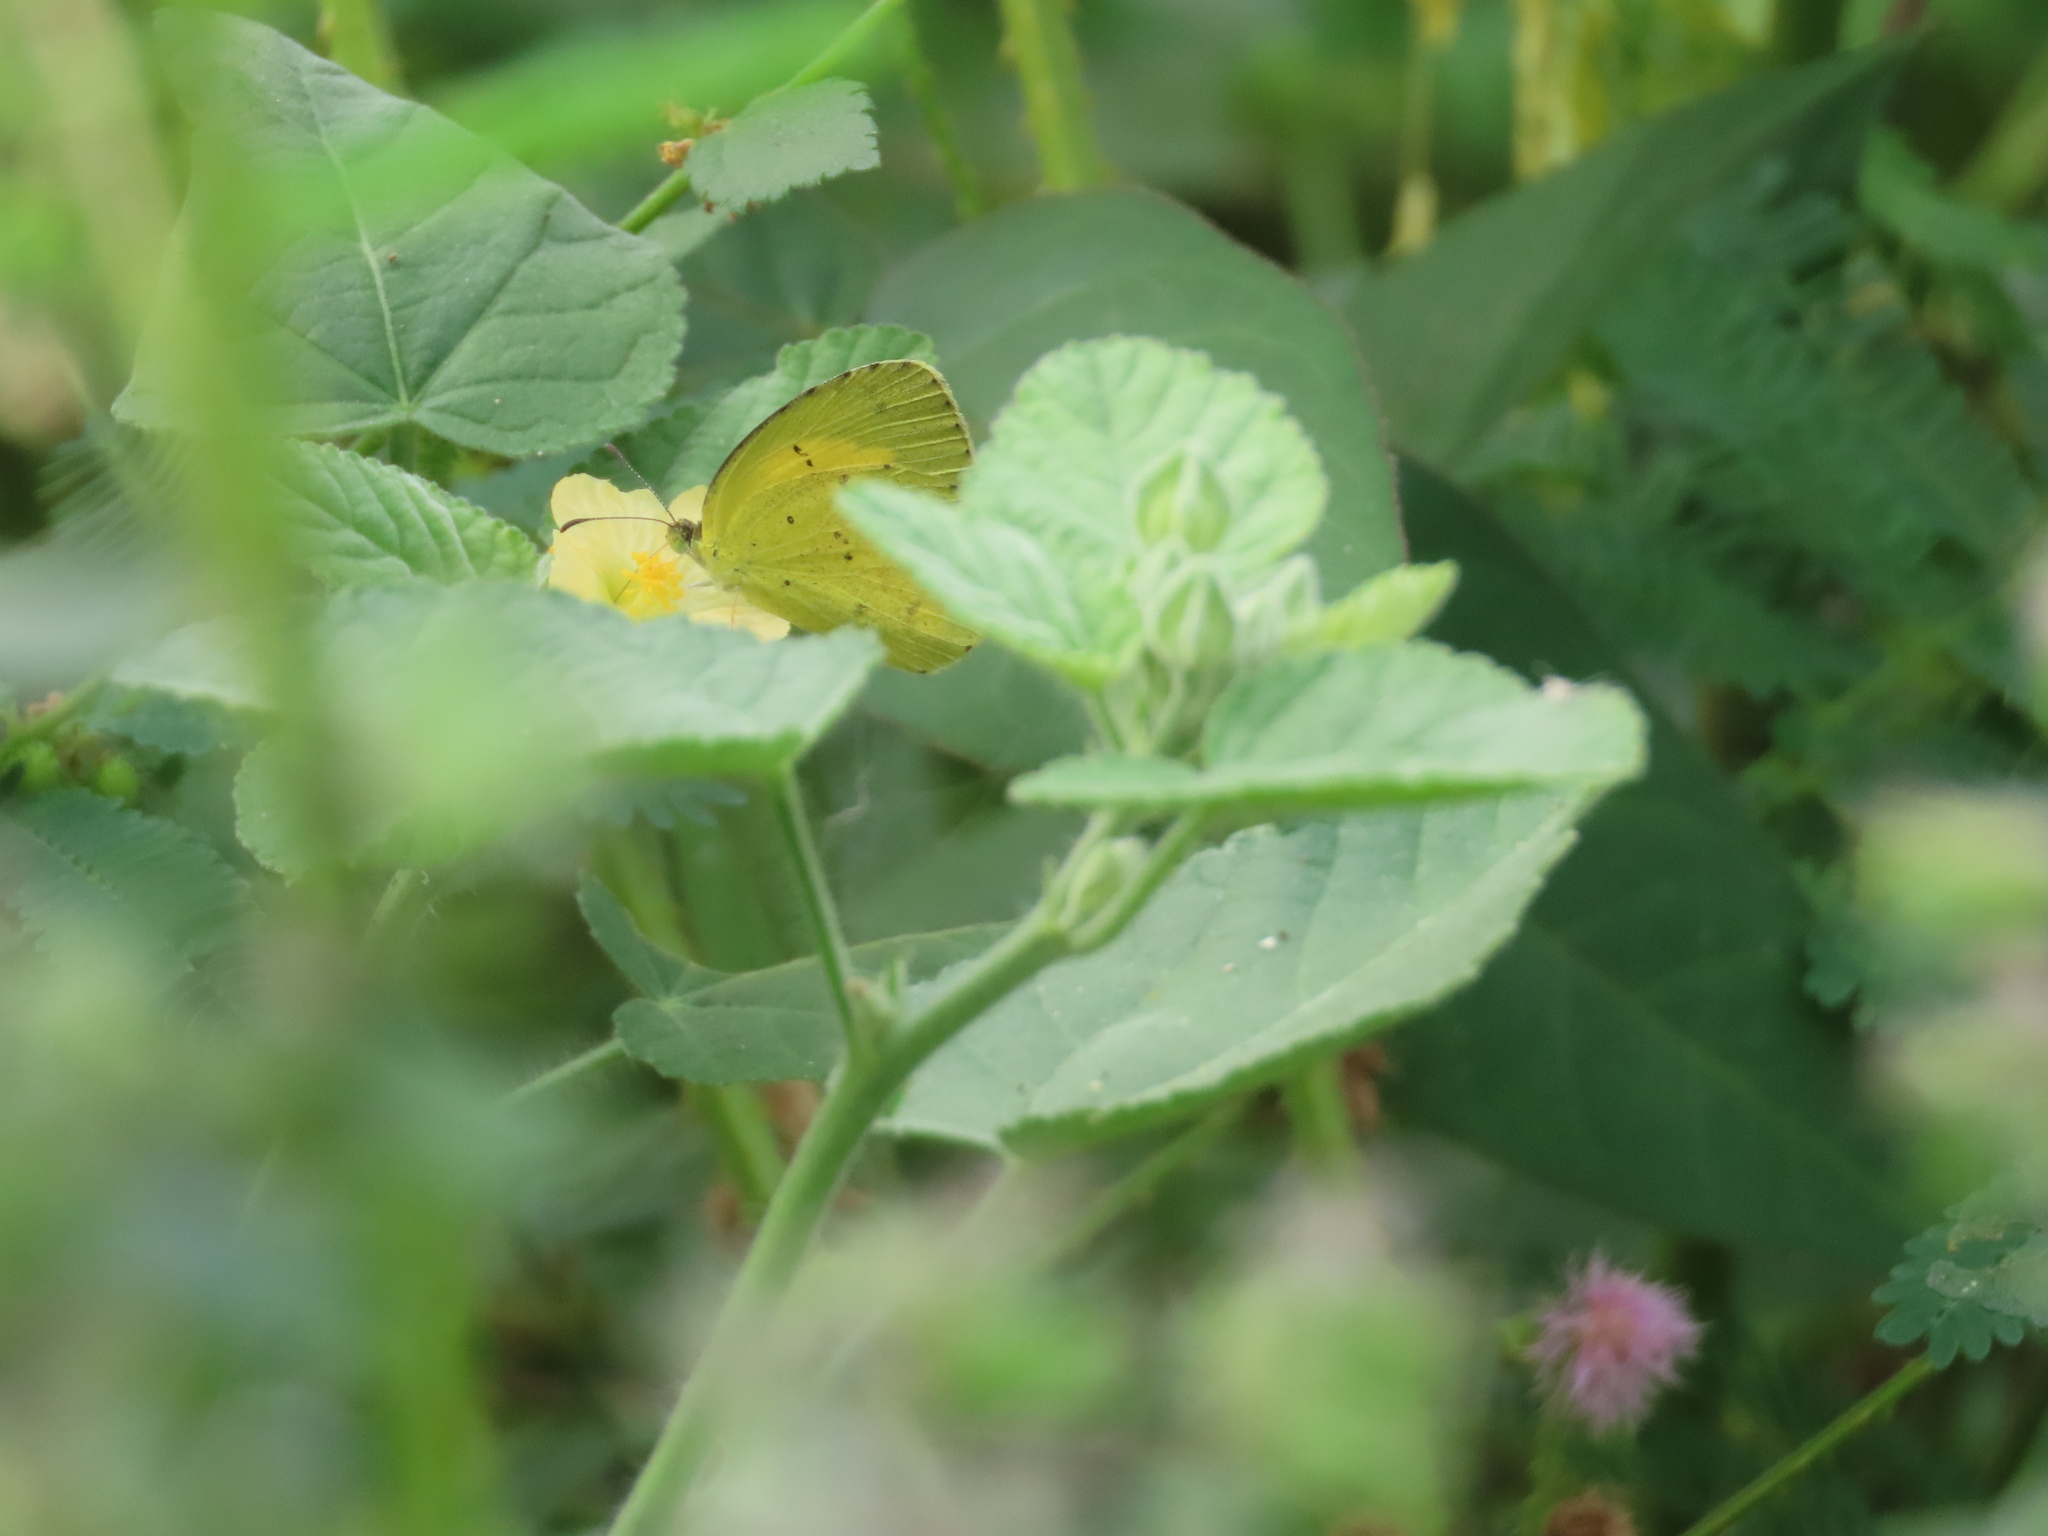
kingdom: Animalia
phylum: Arthropoda
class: Insecta
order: Lepidoptera
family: Pieridae
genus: Eurema
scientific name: Eurema hecabe
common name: Pale grass yellow
